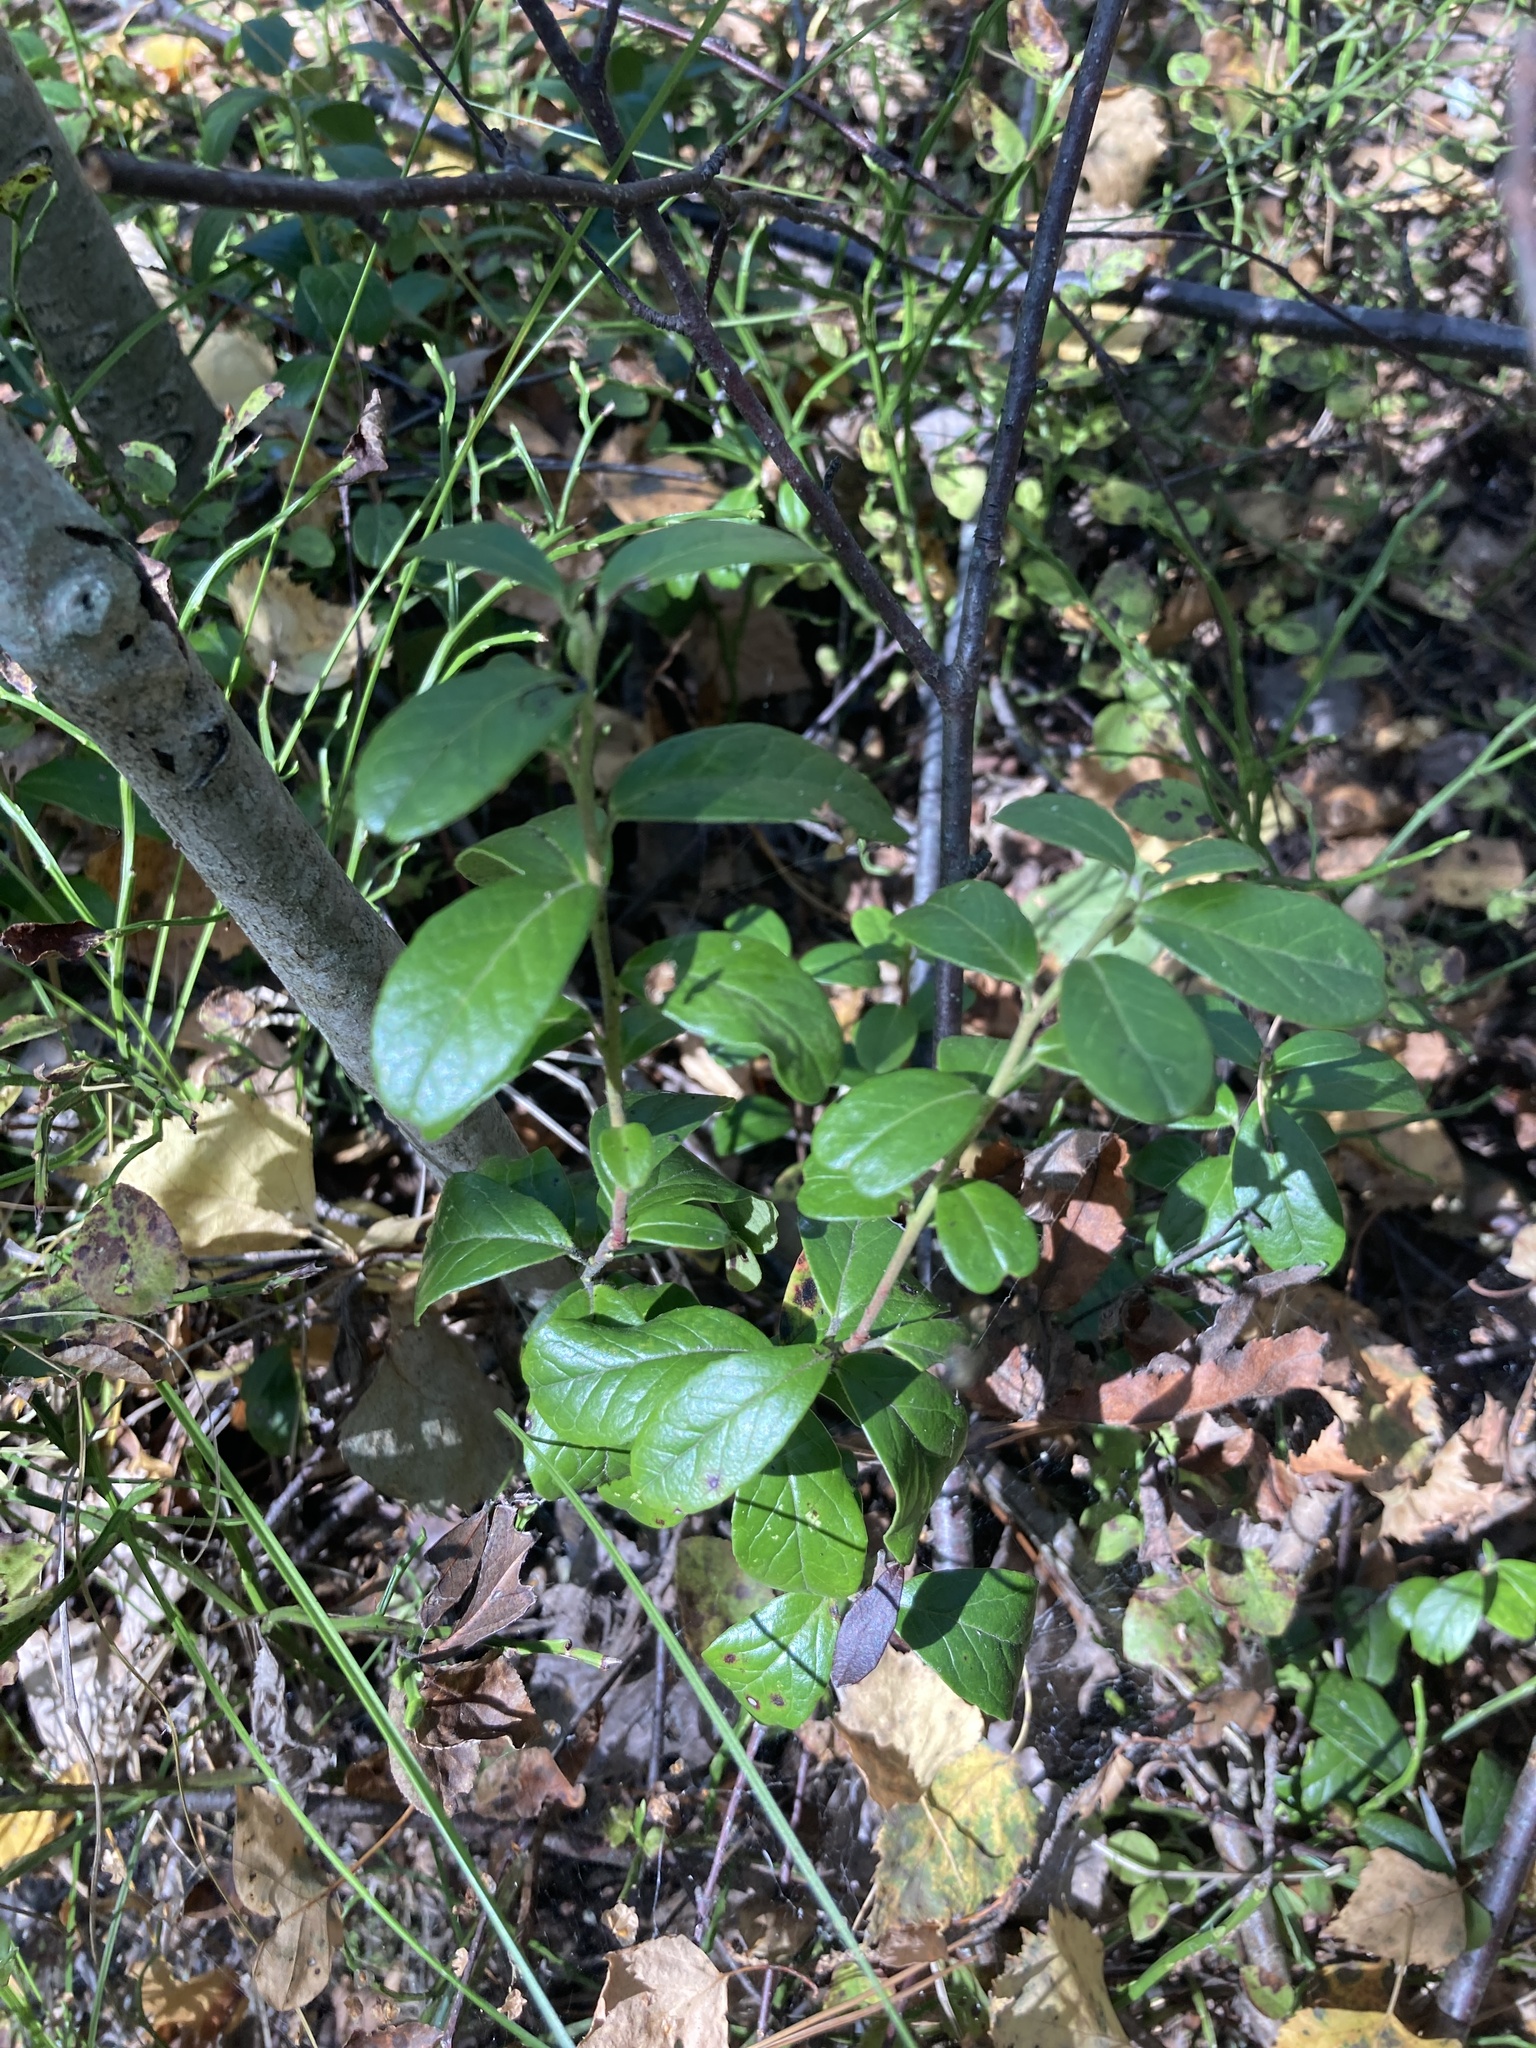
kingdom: Plantae
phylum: Tracheophyta
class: Magnoliopsida
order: Ericales
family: Ericaceae
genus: Vaccinium
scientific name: Vaccinium vitis-idaea
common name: Cowberry
